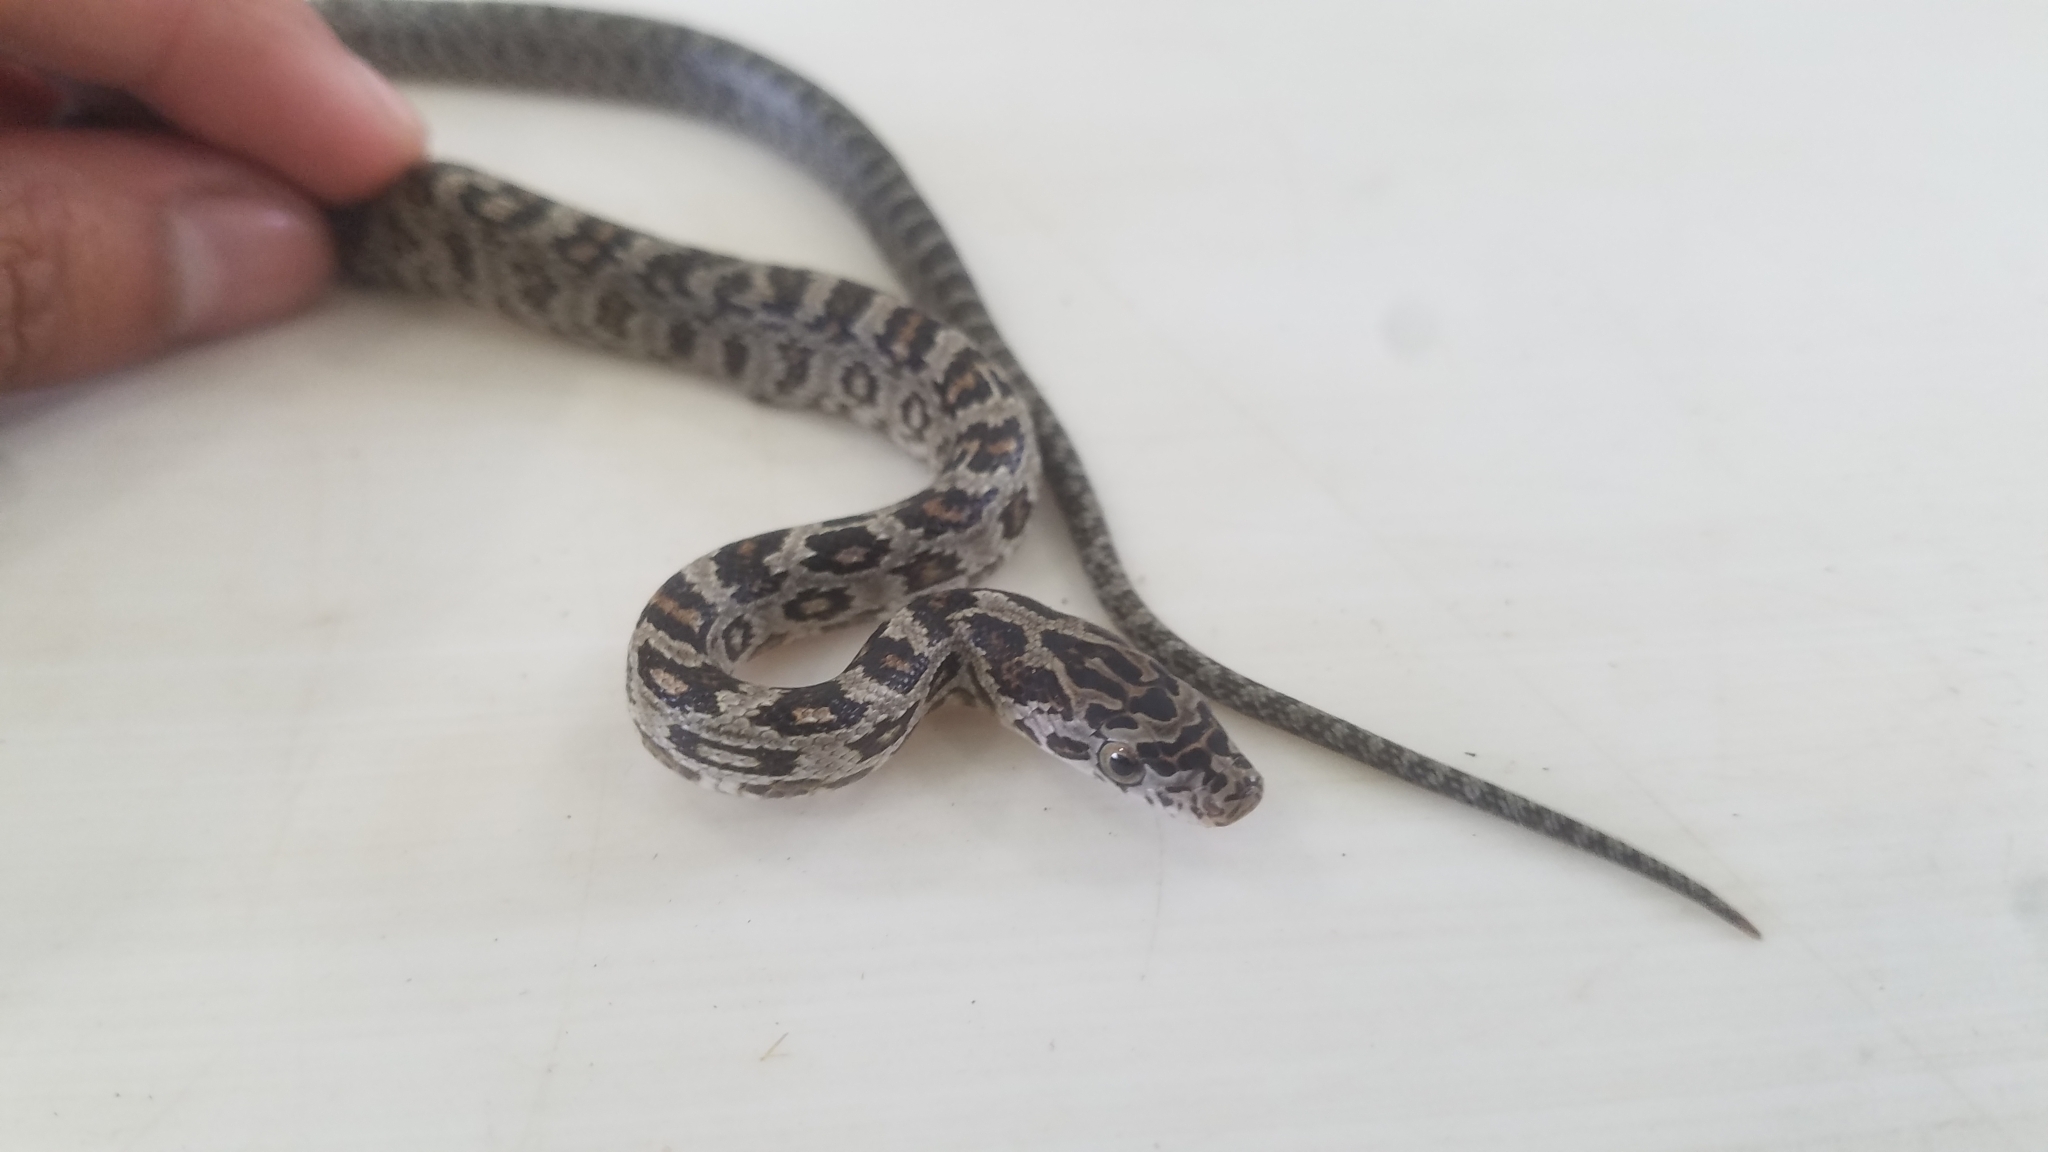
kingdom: Animalia
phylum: Chordata
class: Squamata
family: Colubridae
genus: Senticolis
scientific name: Senticolis triaspis
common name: Green rat snake
